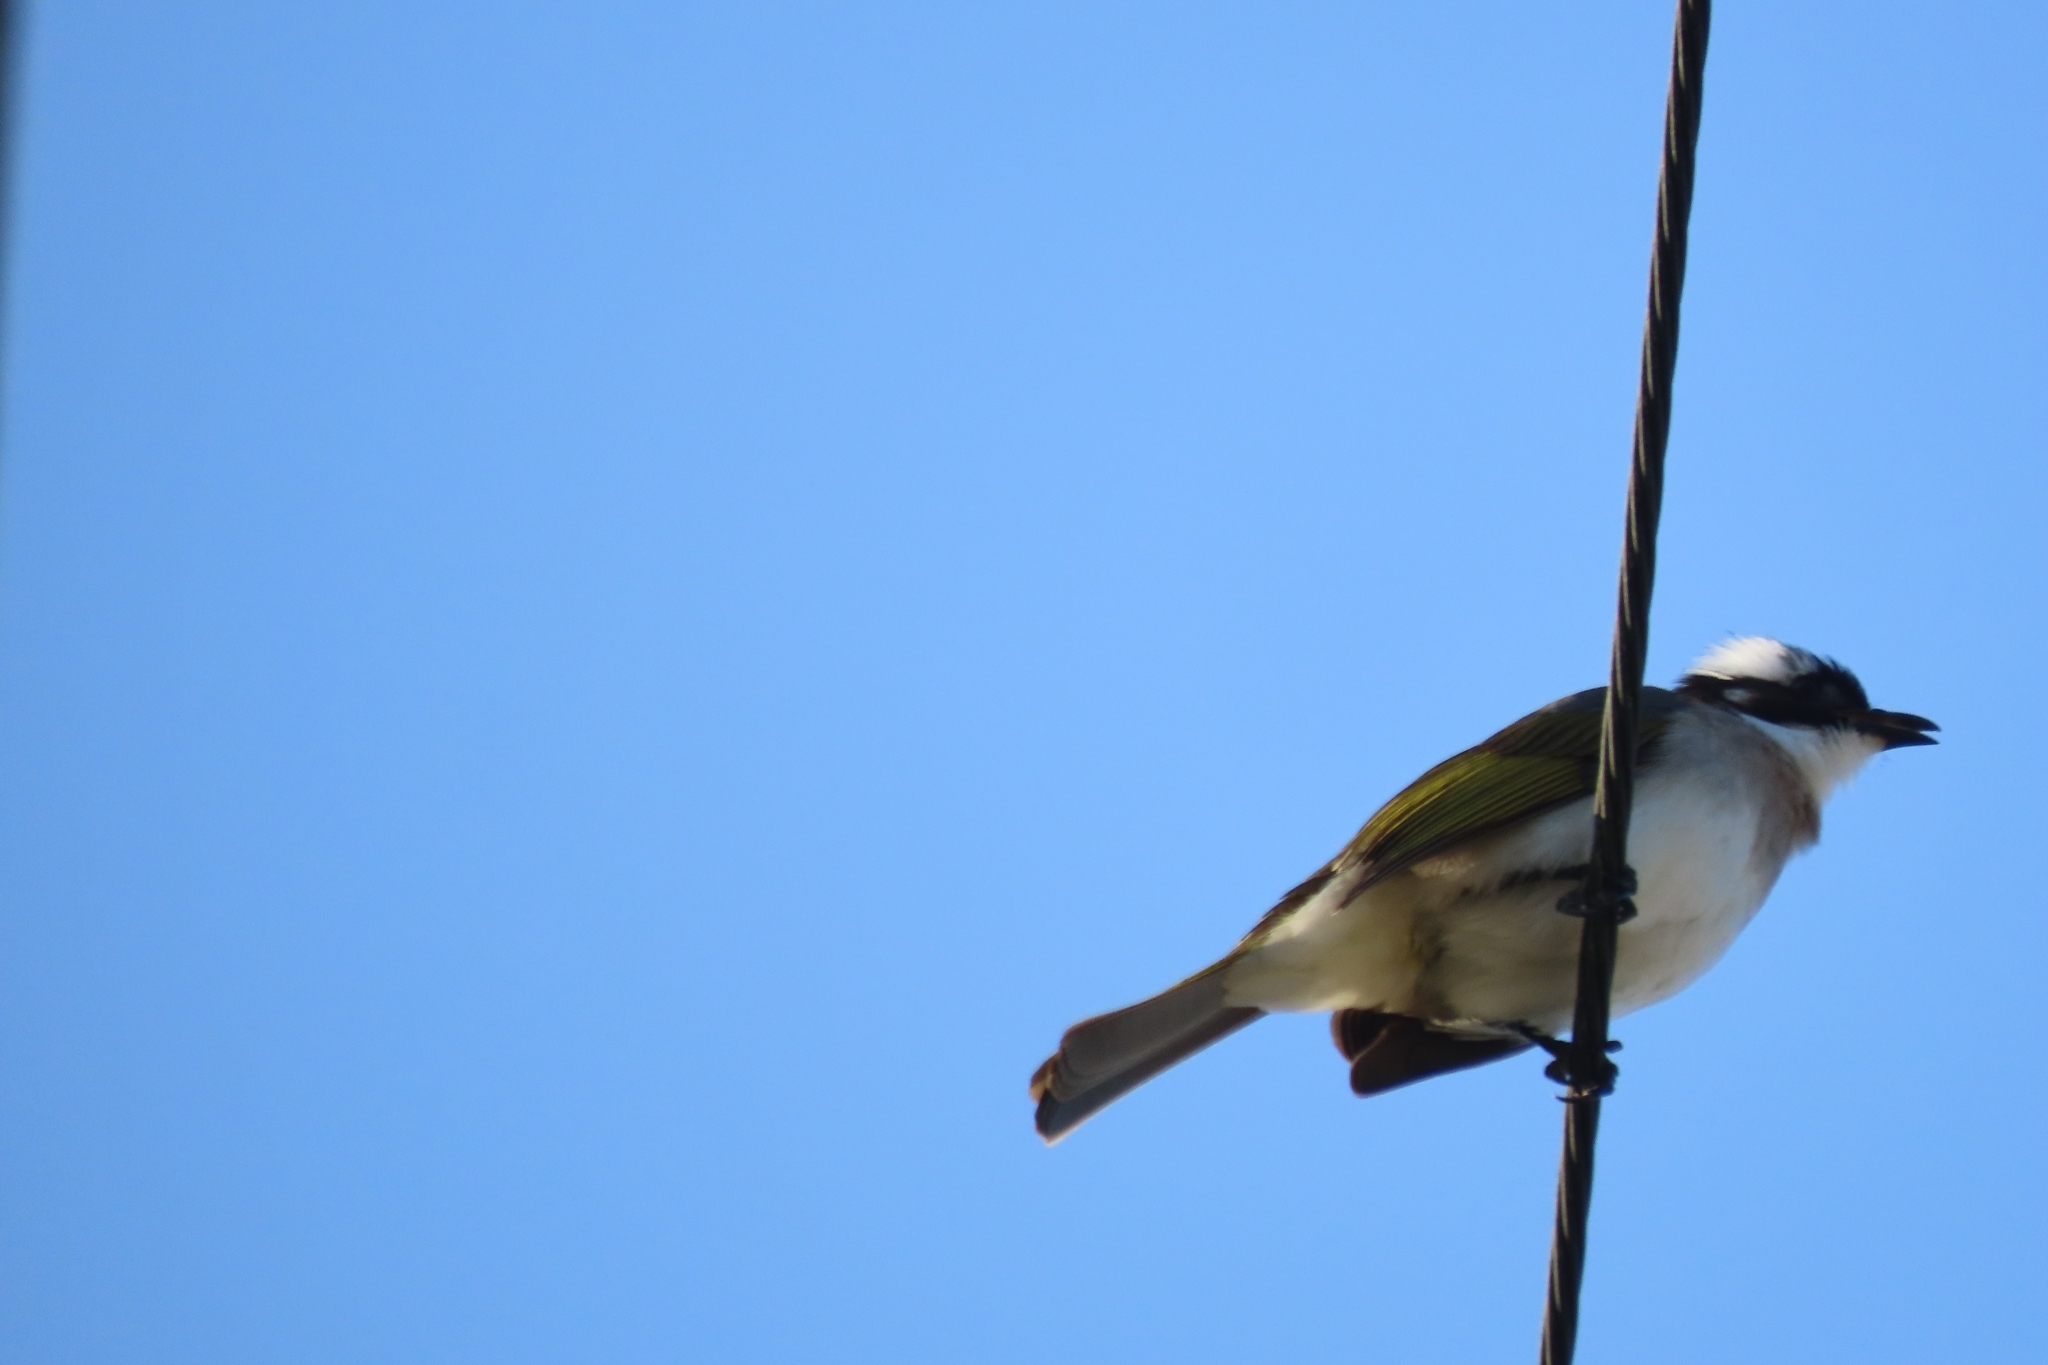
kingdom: Animalia
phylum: Chordata
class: Aves
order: Passeriformes
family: Pycnonotidae
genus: Pycnonotus
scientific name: Pycnonotus sinensis
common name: Light-vented bulbul
